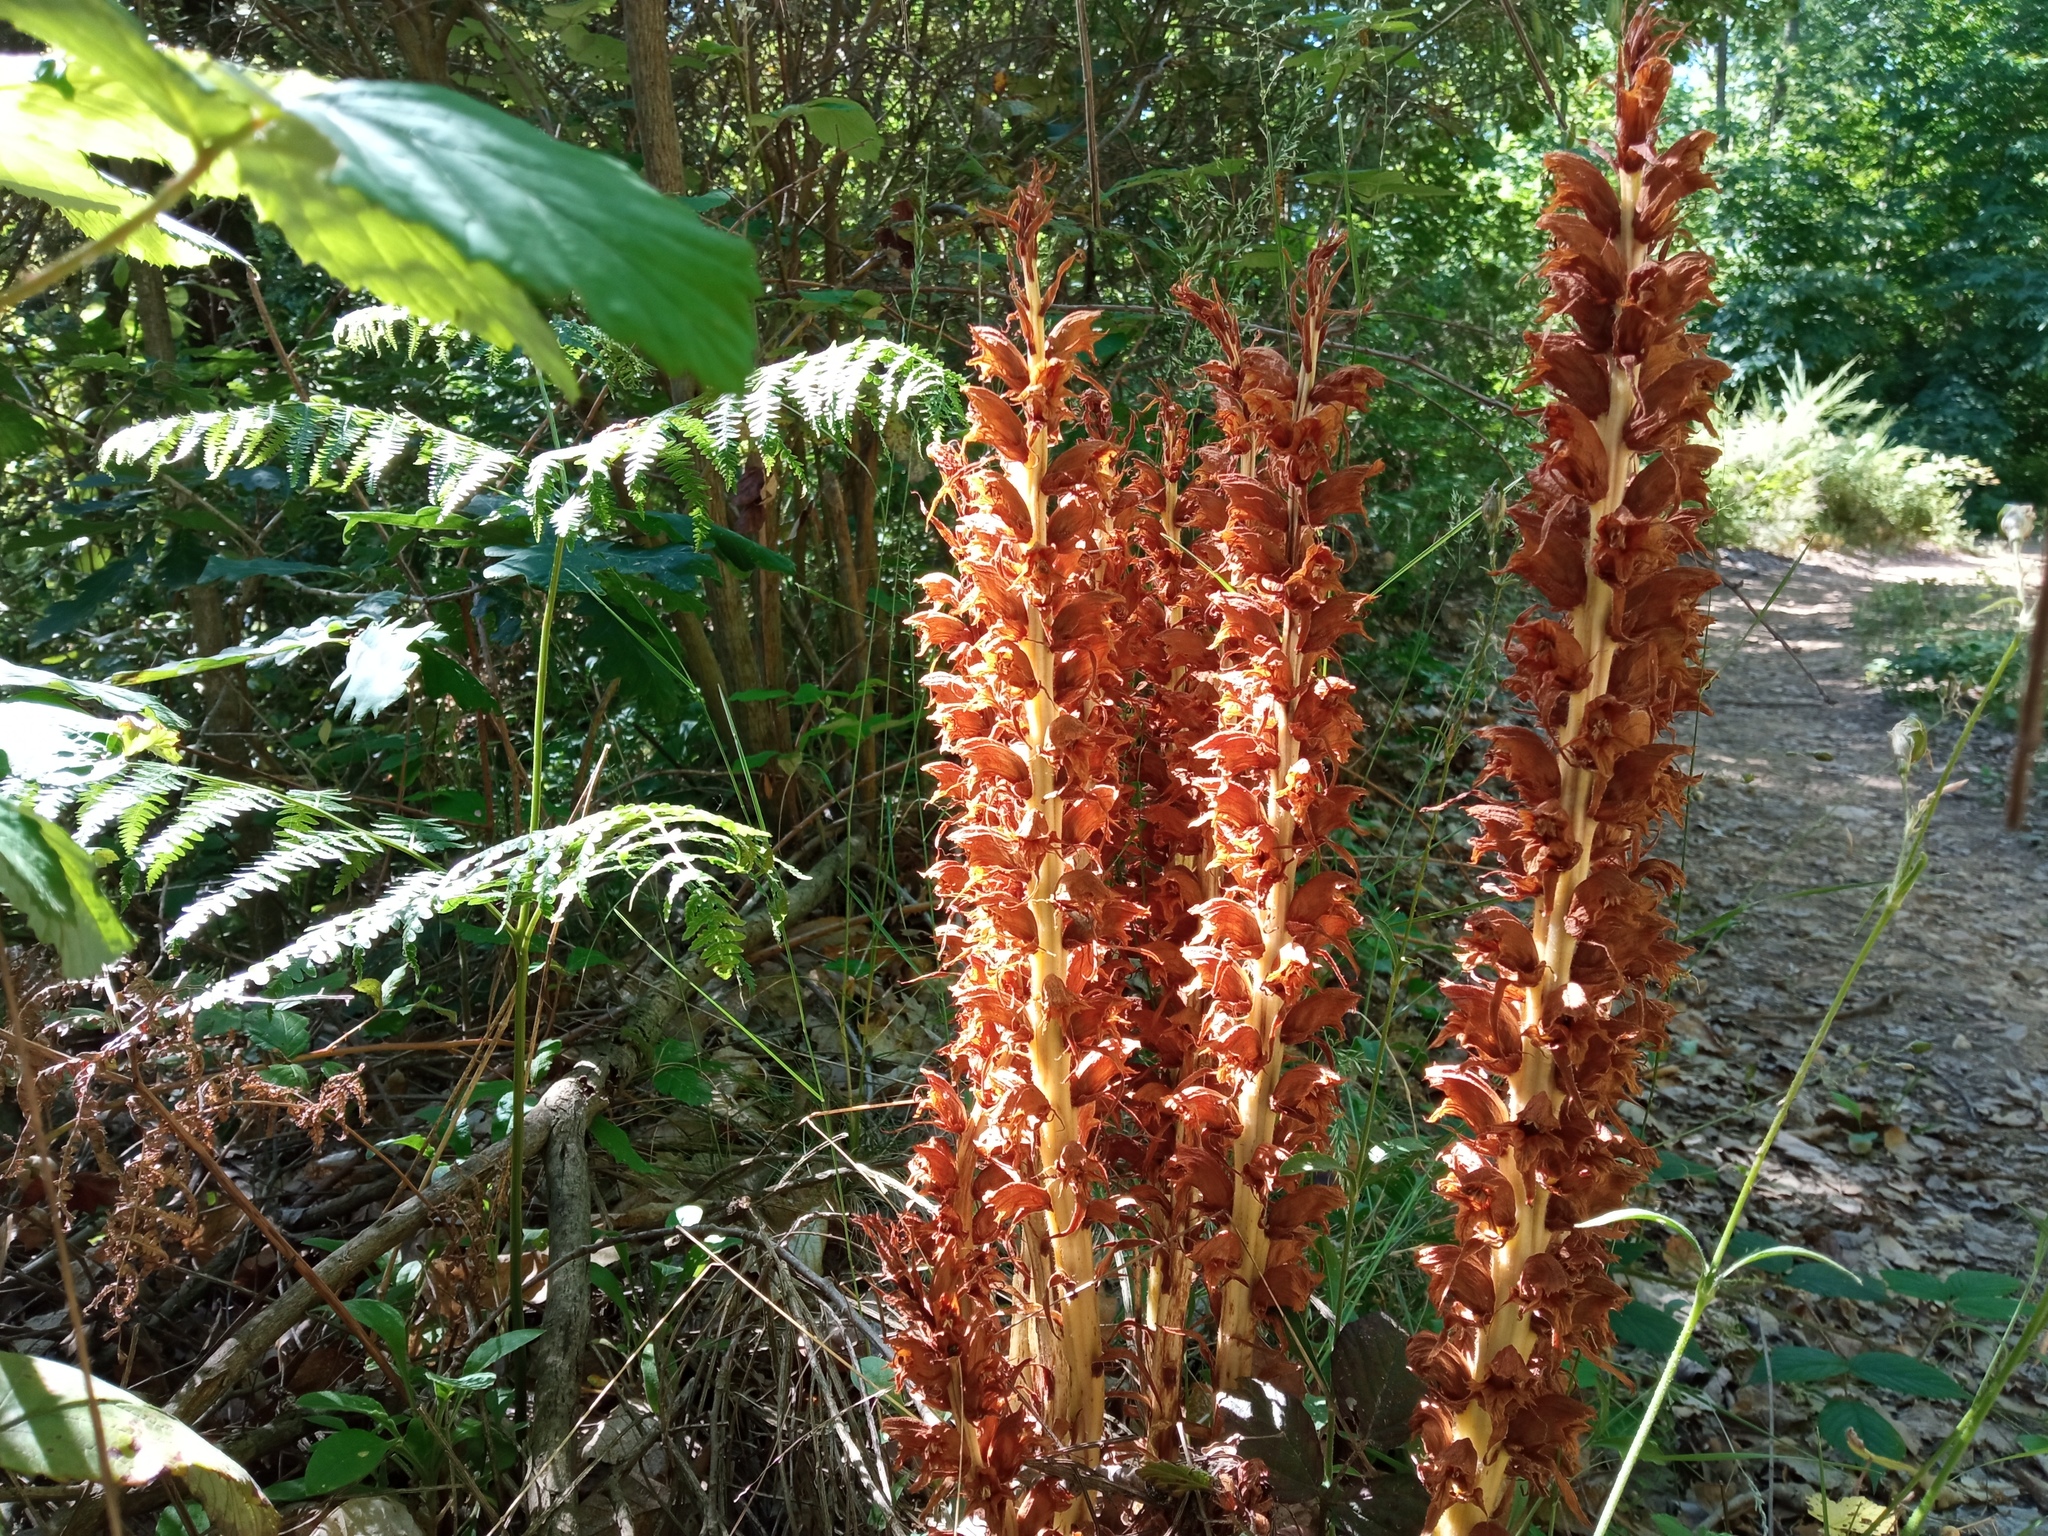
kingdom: Plantae
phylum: Tracheophyta
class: Magnoliopsida
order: Lamiales
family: Orobanchaceae
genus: Orobanche
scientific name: Orobanche rapum-genistae
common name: Greater broomrape
